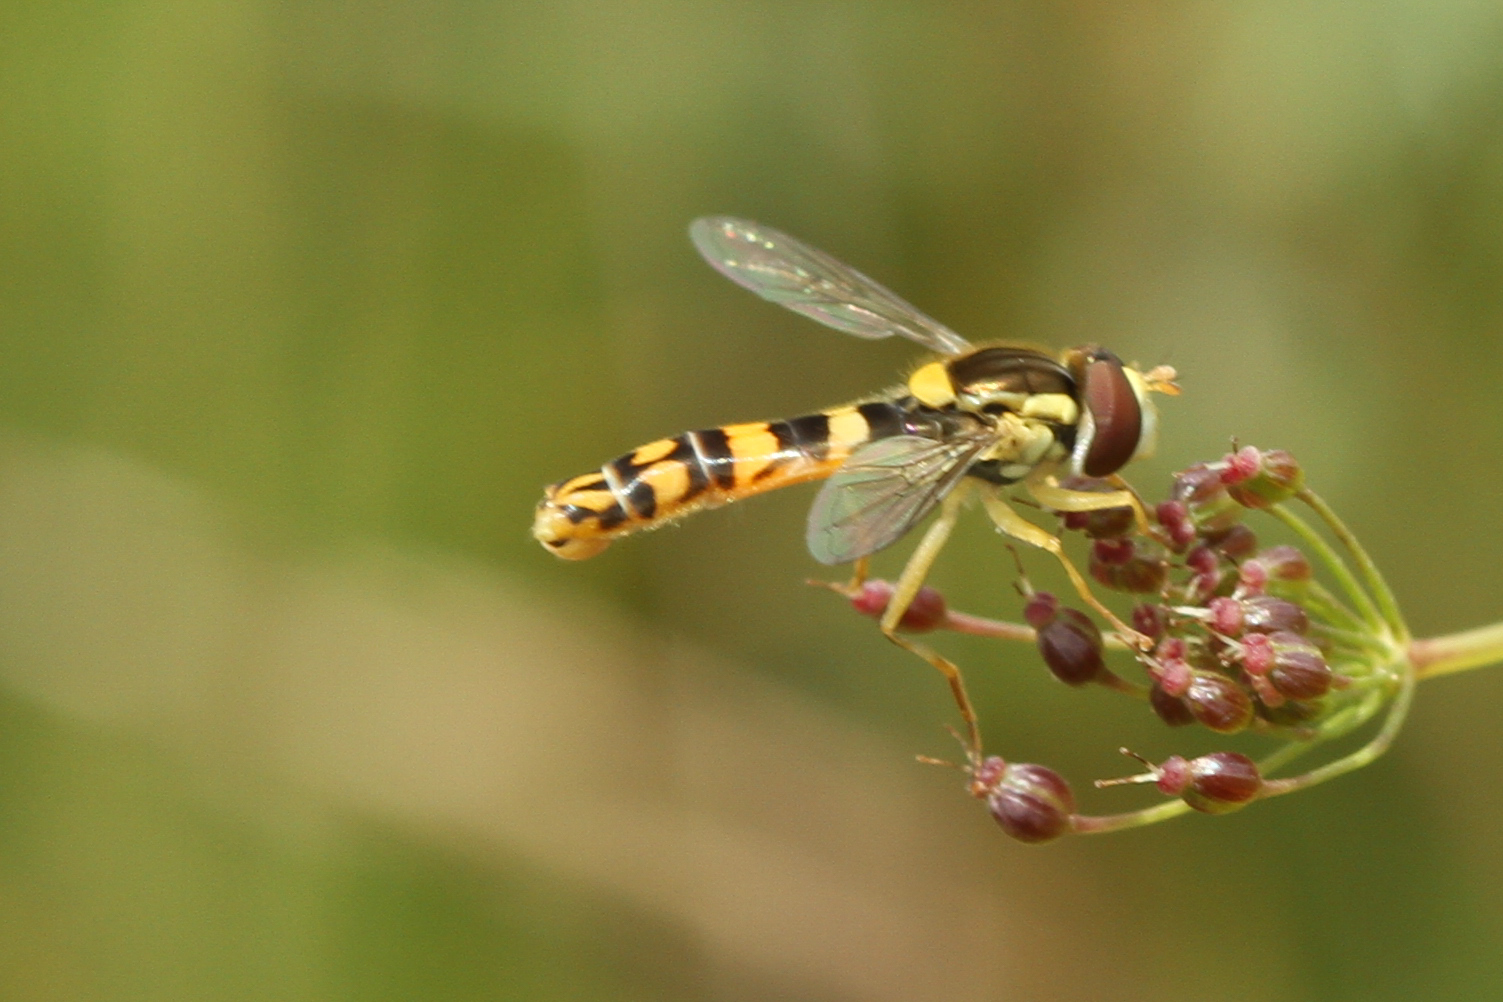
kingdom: Animalia
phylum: Arthropoda
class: Insecta
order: Diptera
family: Syrphidae
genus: Sphaerophoria
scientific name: Sphaerophoria scripta
